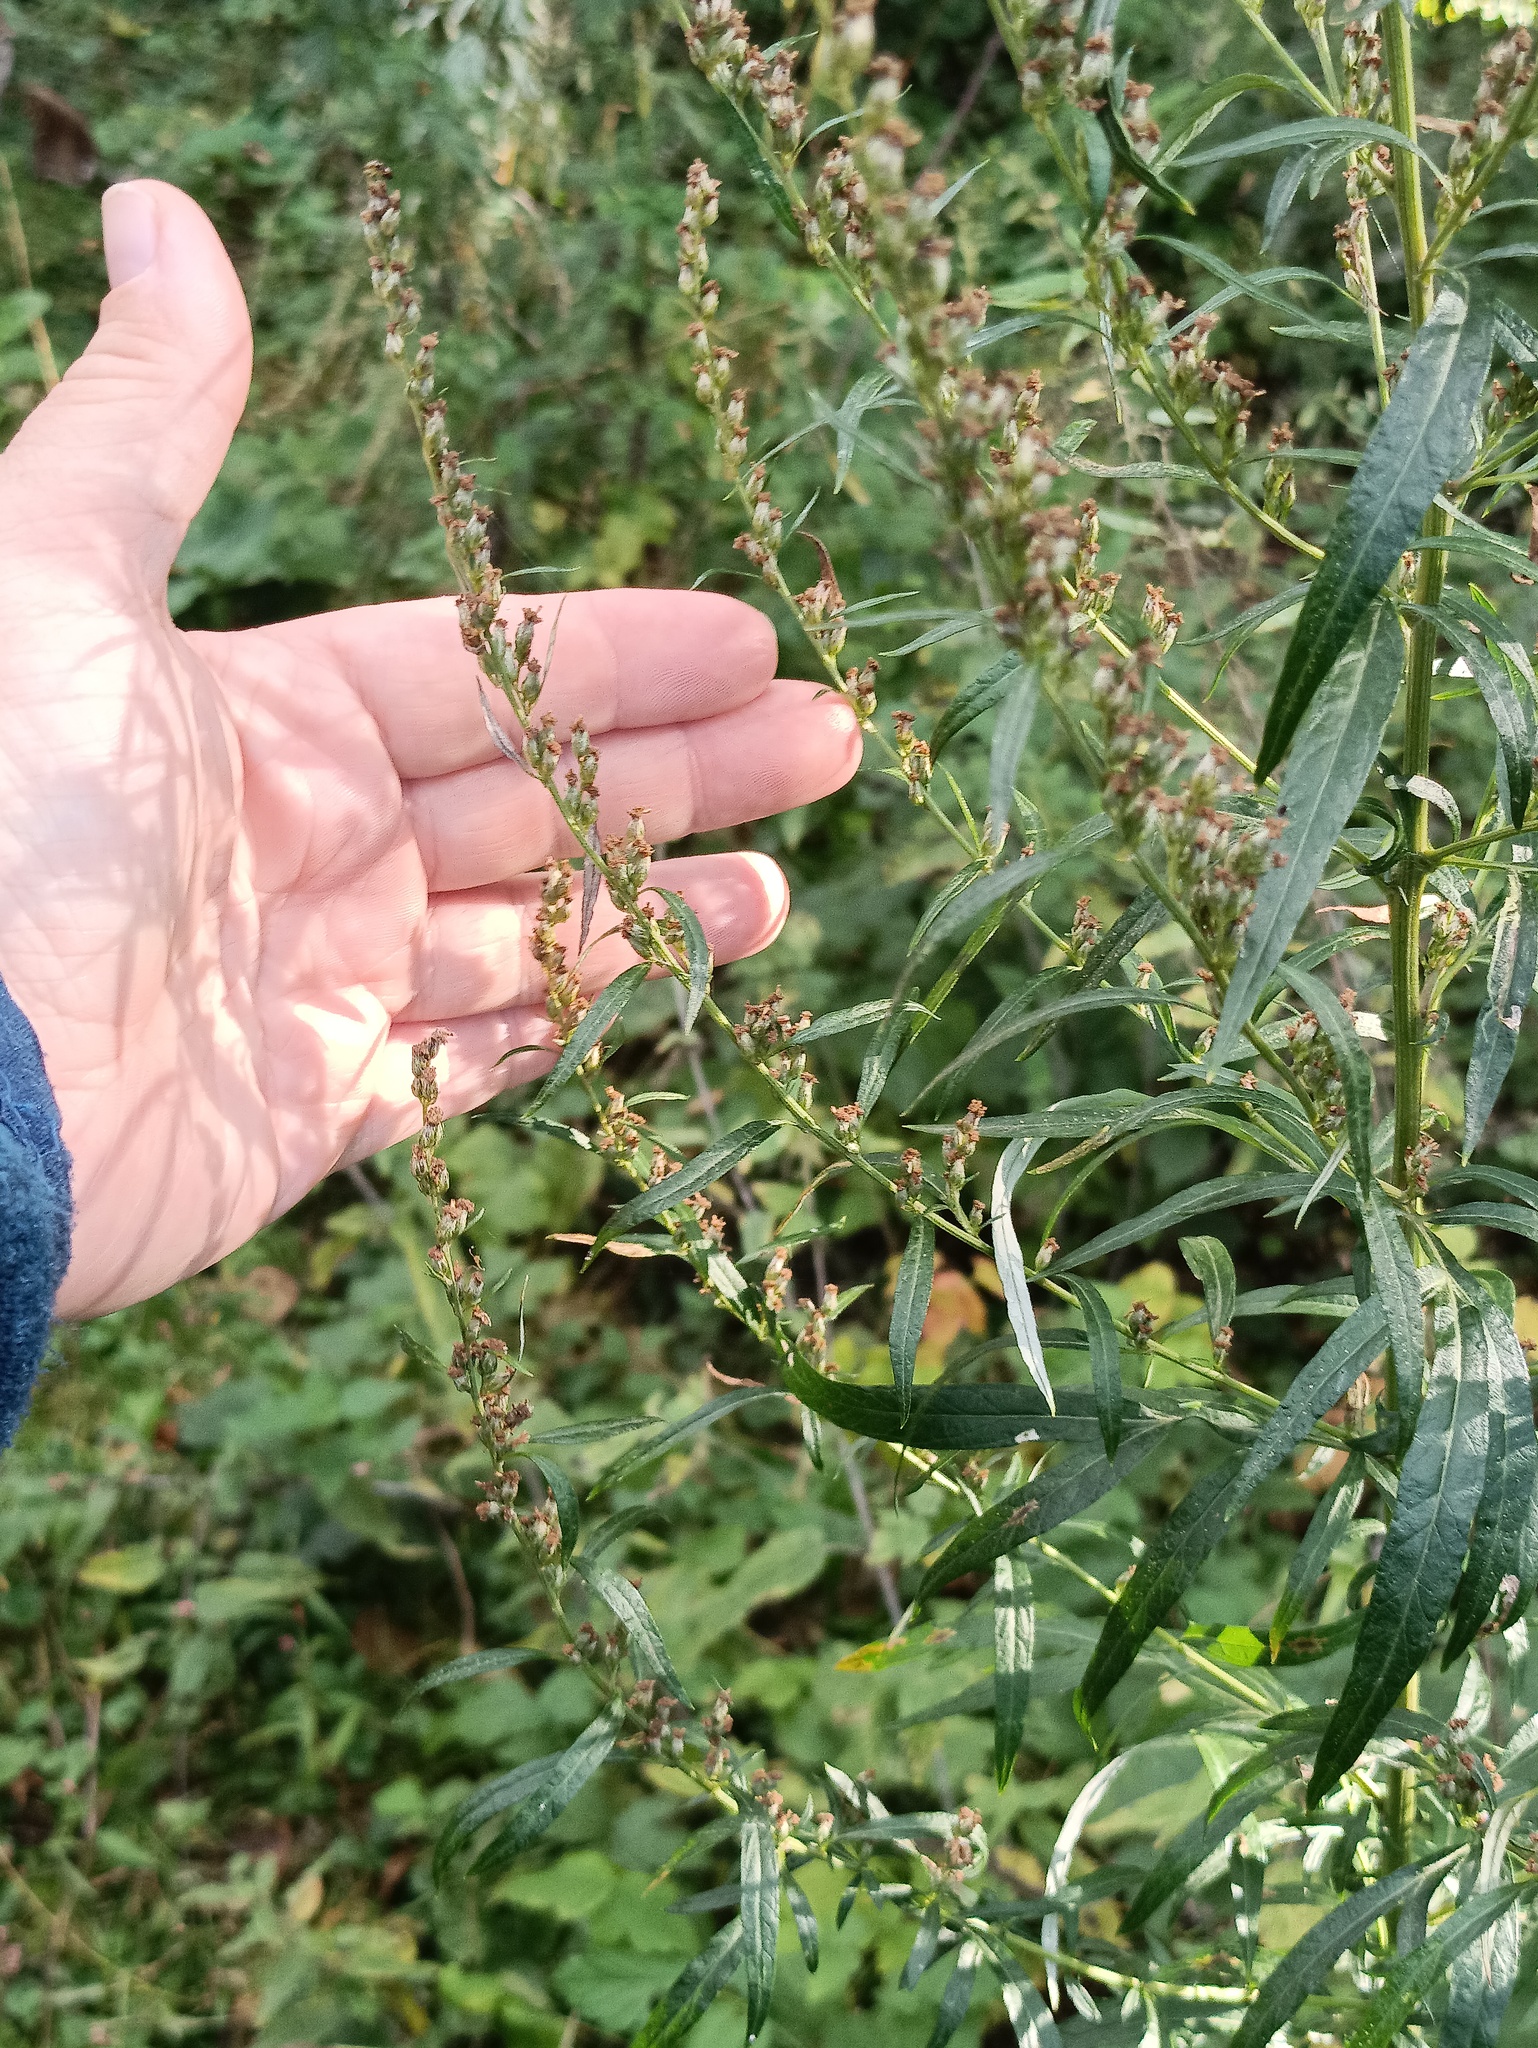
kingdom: Plantae
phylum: Tracheophyta
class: Magnoliopsida
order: Asterales
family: Asteraceae
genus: Artemisia
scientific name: Artemisia vulgaris
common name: Mugwort
